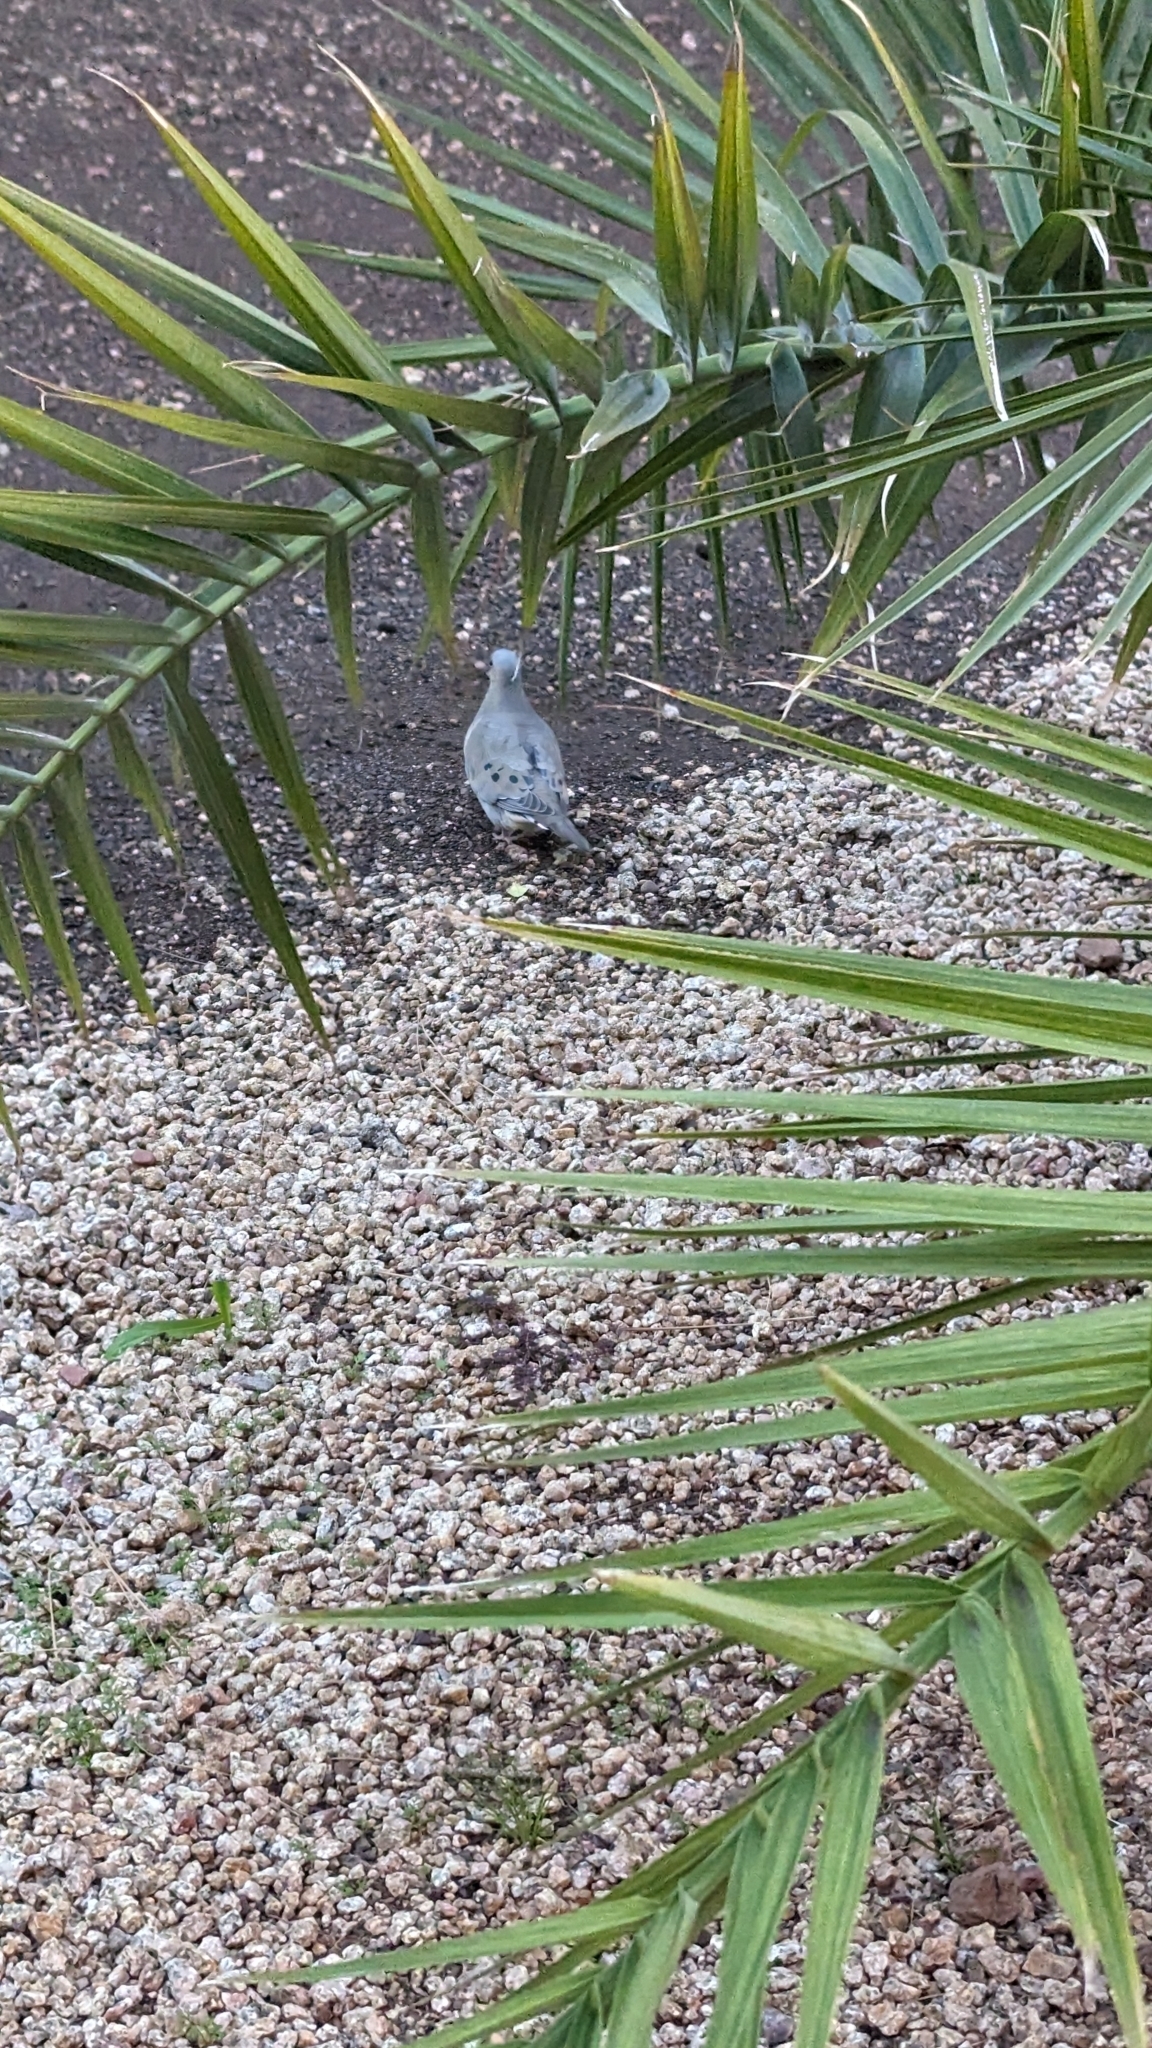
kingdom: Animalia
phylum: Chordata
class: Aves
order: Columbiformes
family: Columbidae
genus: Zenaida
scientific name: Zenaida macroura
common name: Mourning dove
